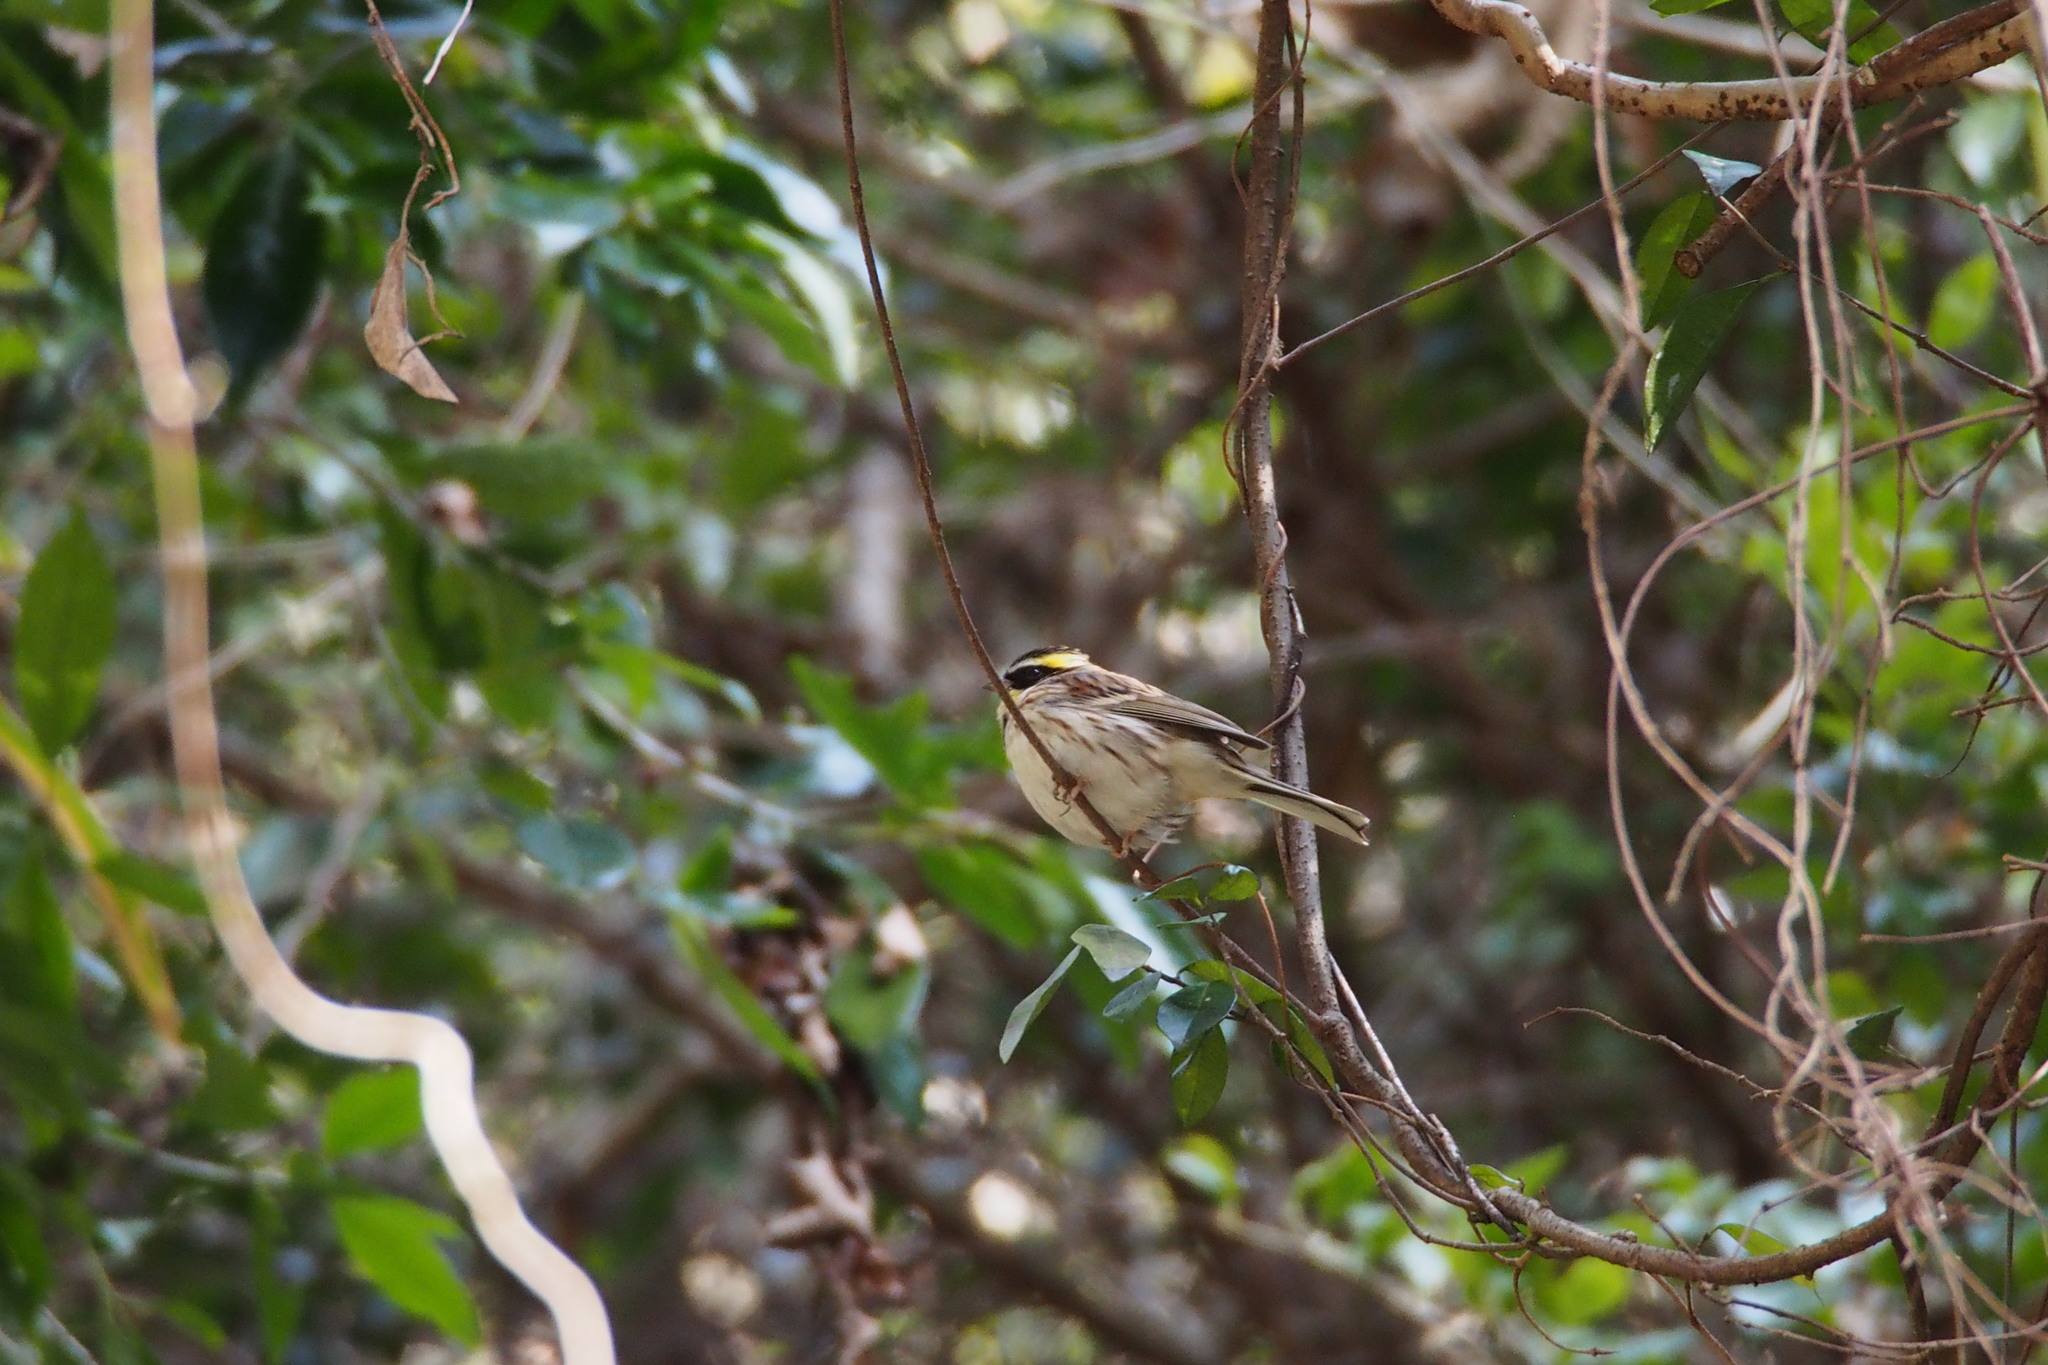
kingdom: Animalia
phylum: Chordata
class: Aves
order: Passeriformes
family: Emberizidae
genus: Emberiza
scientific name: Emberiza elegans
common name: Yellow-throated bunting
